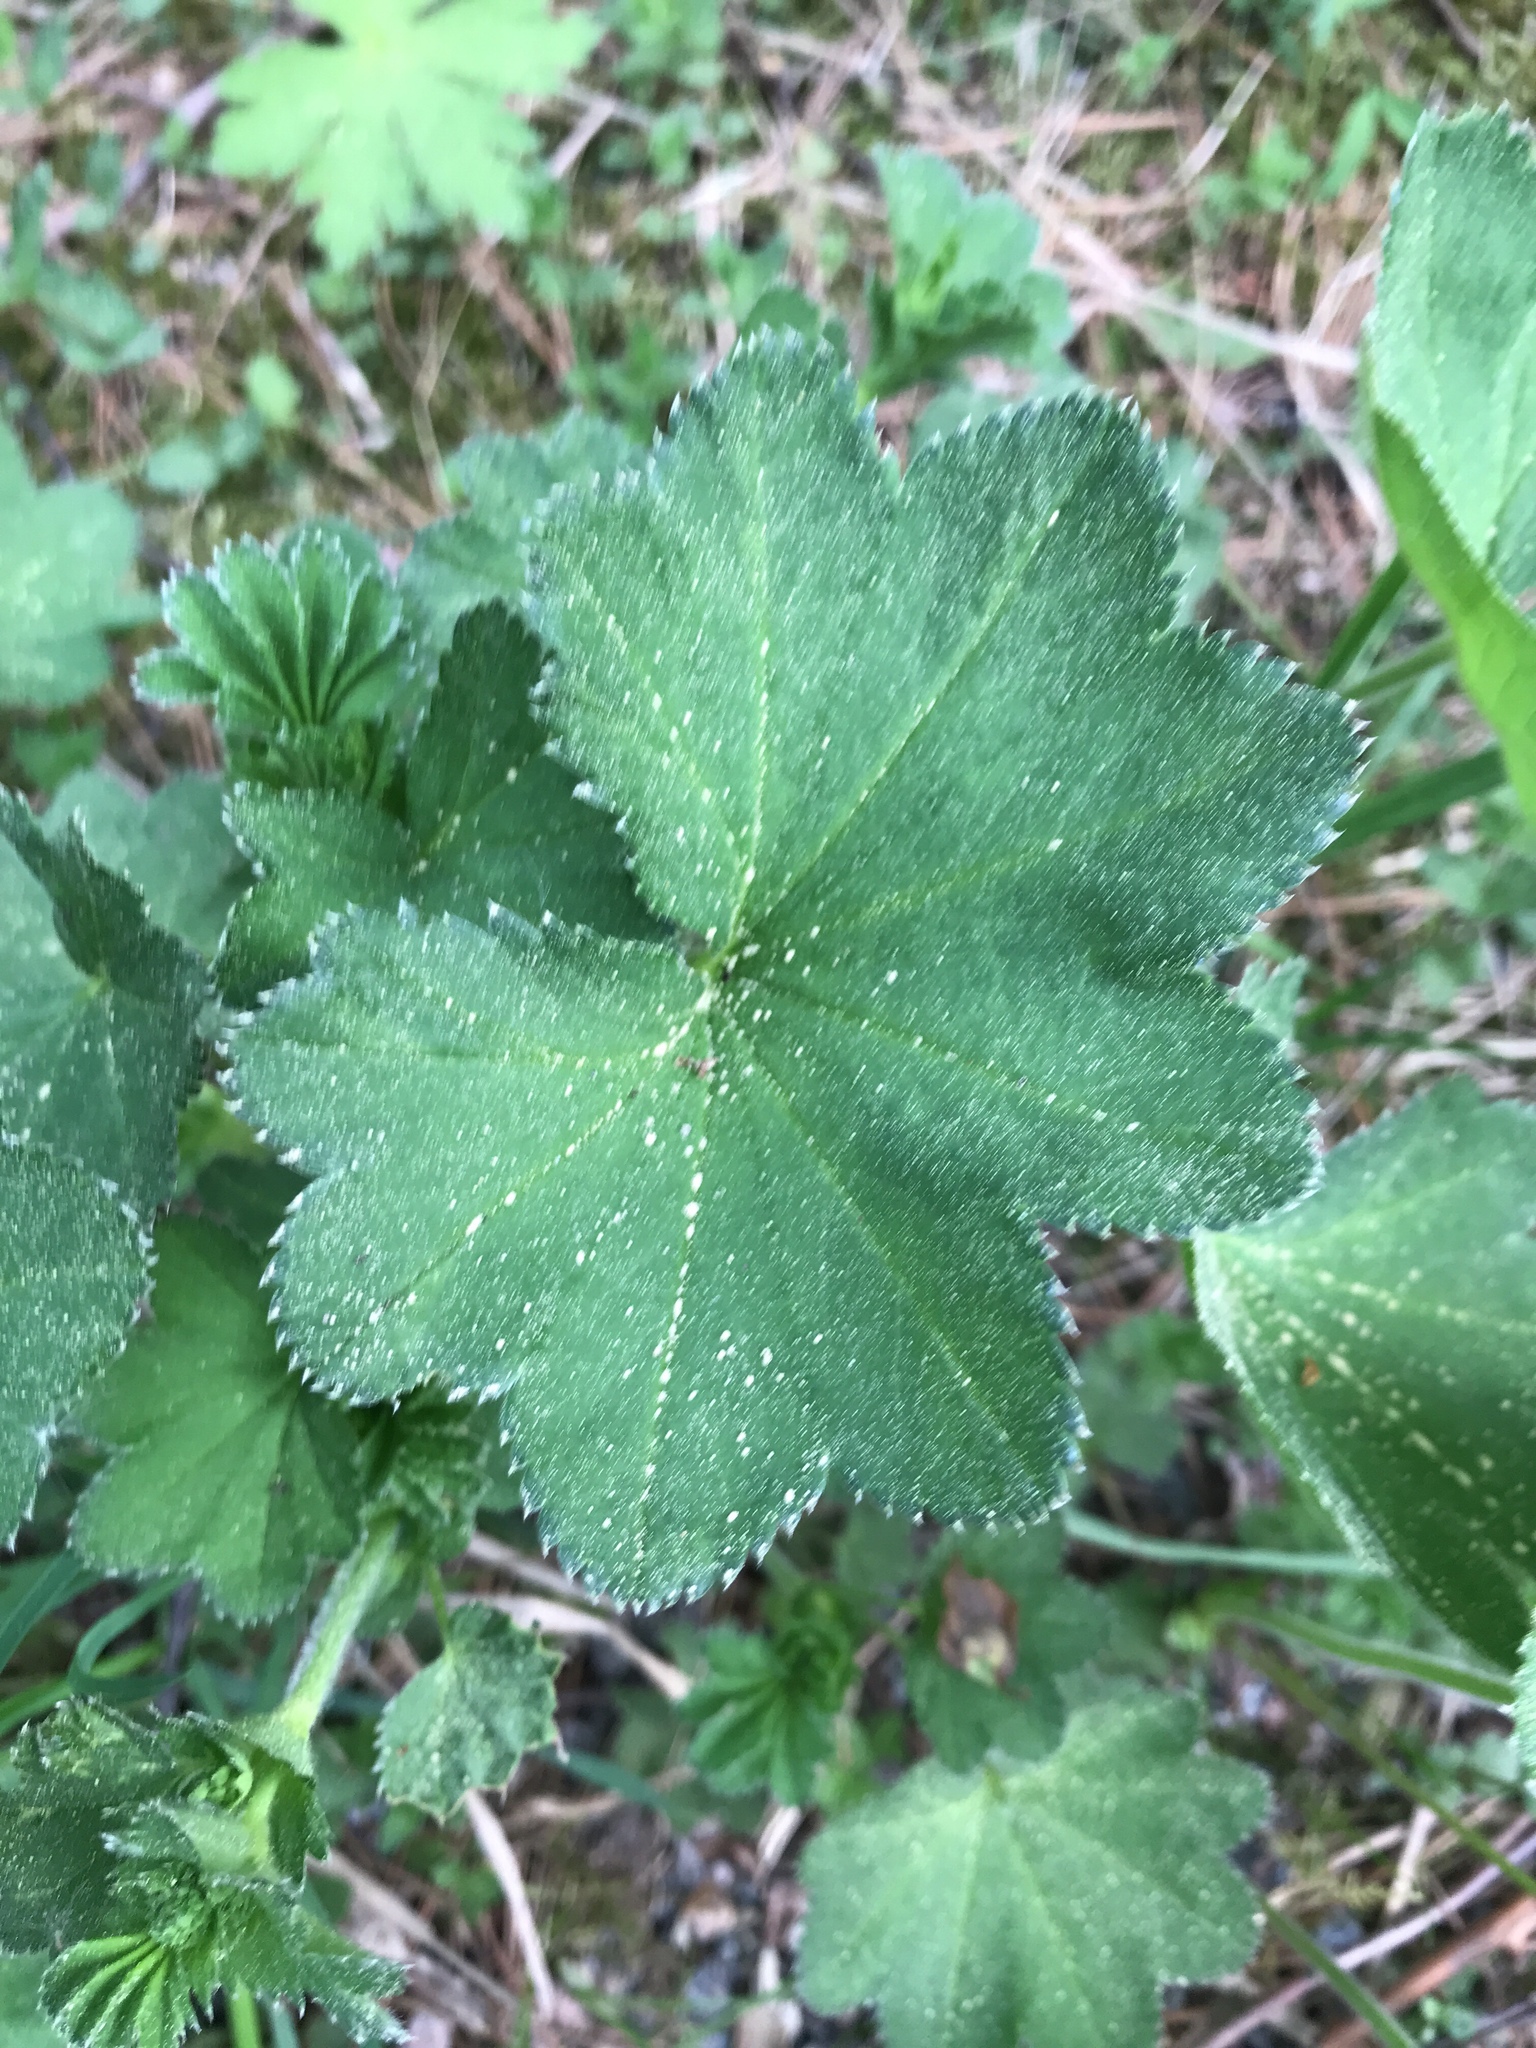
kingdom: Plantae
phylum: Tracheophyta
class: Magnoliopsida
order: Rosales
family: Rosaceae
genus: Alchemilla
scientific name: Alchemilla vulgaris
